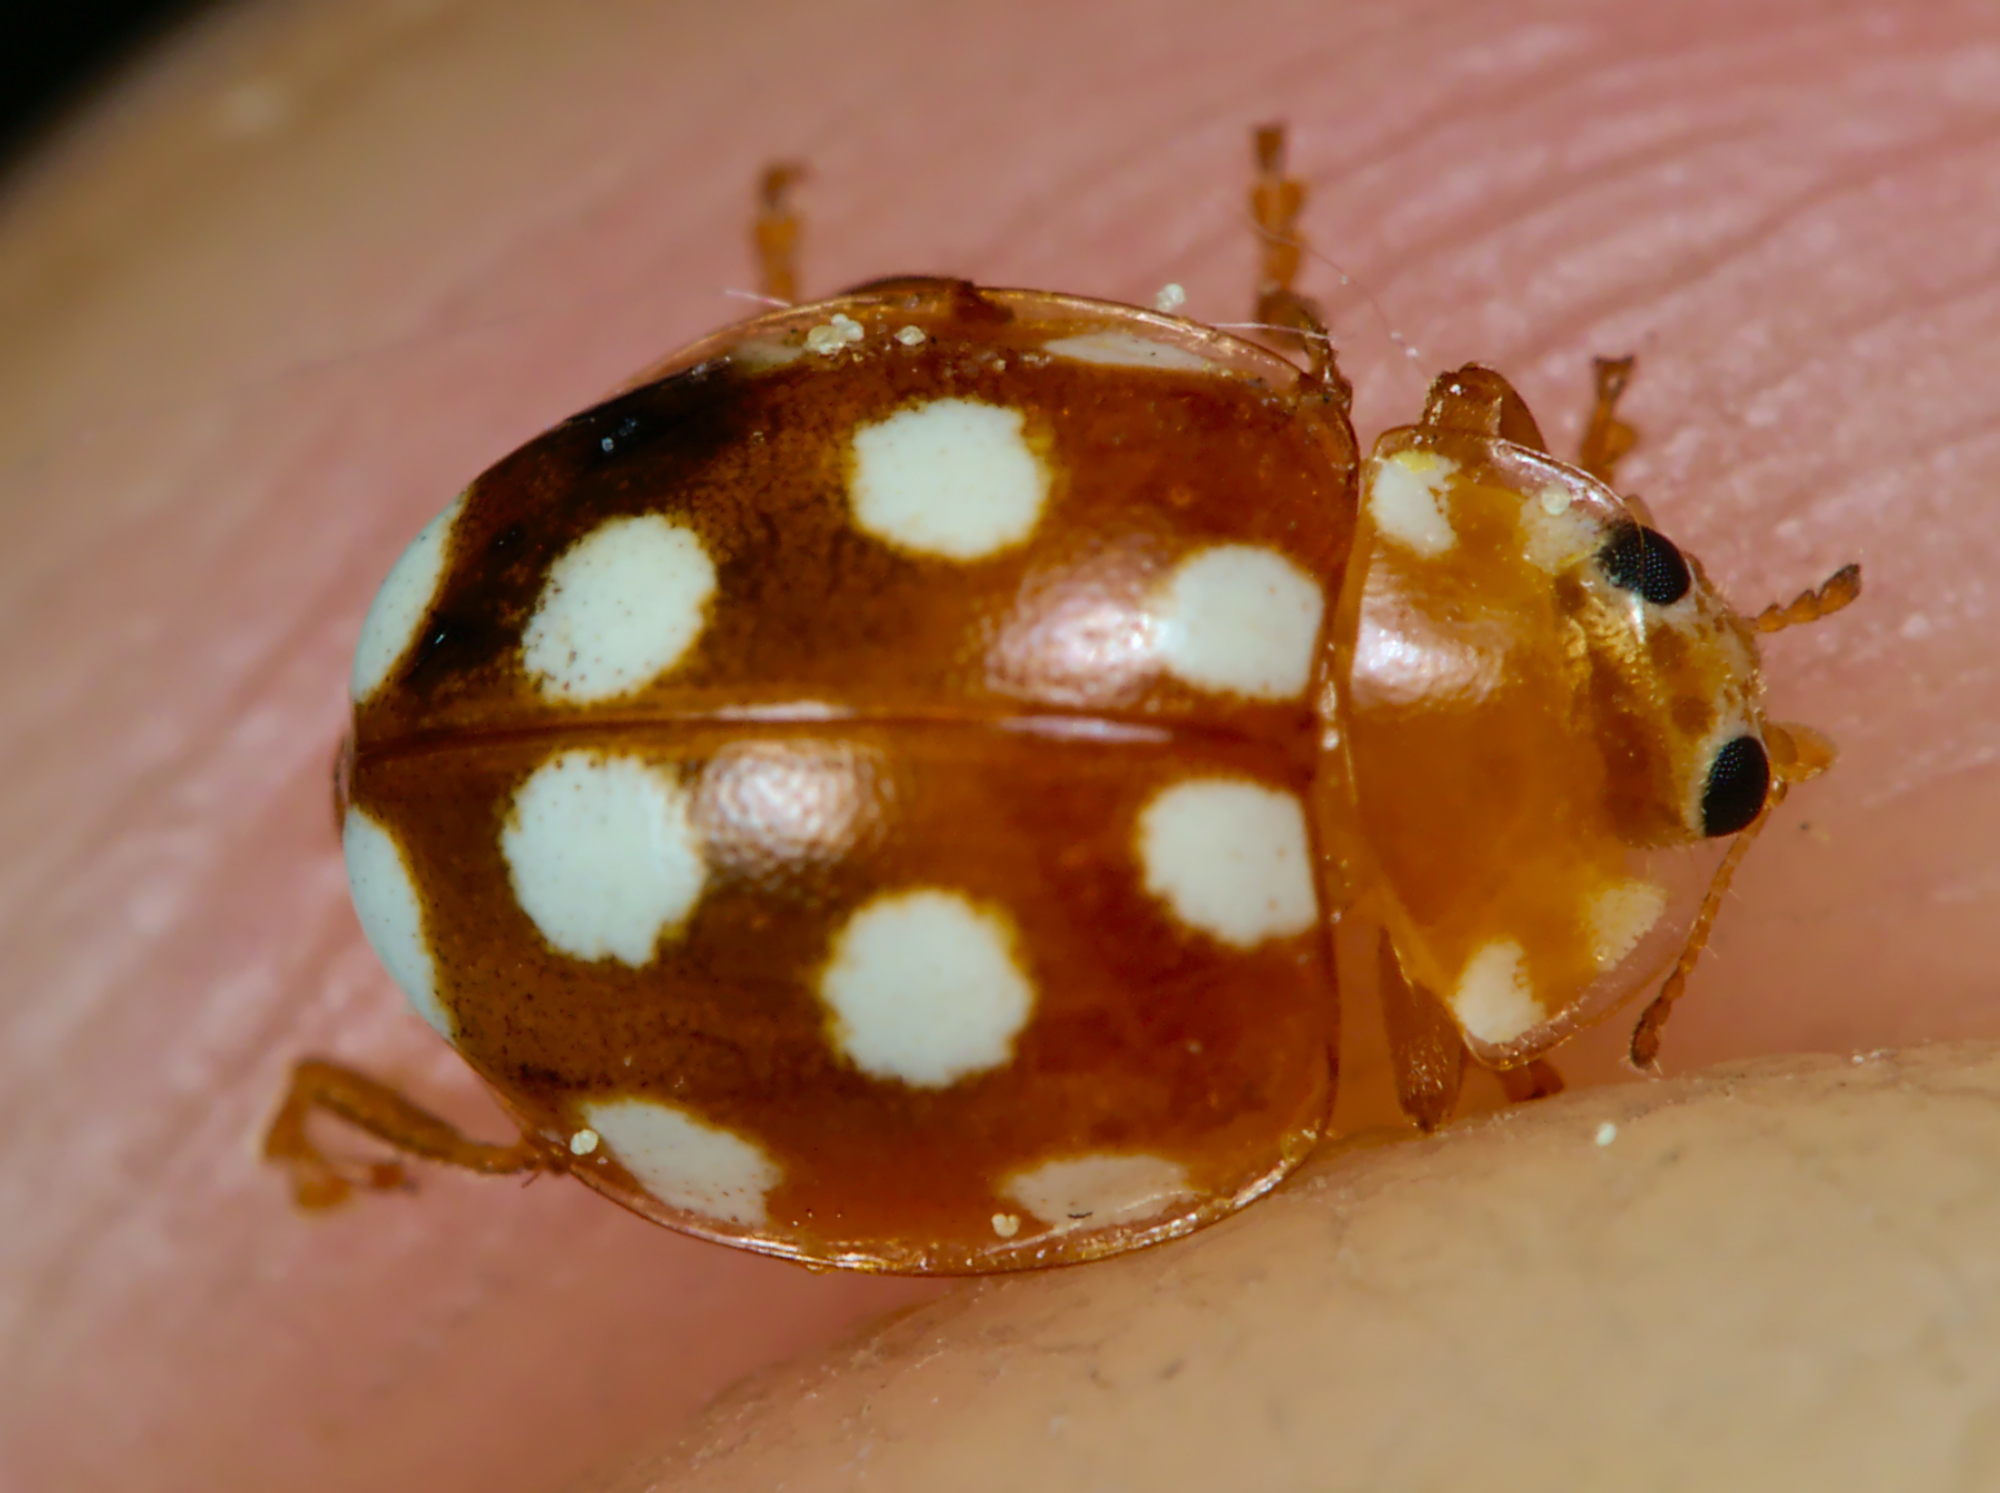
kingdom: Animalia
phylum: Arthropoda
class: Insecta
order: Coleoptera
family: Coccinellidae
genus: Vibidia
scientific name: Vibidia duodecimguttata
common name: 12-spot ladybird
